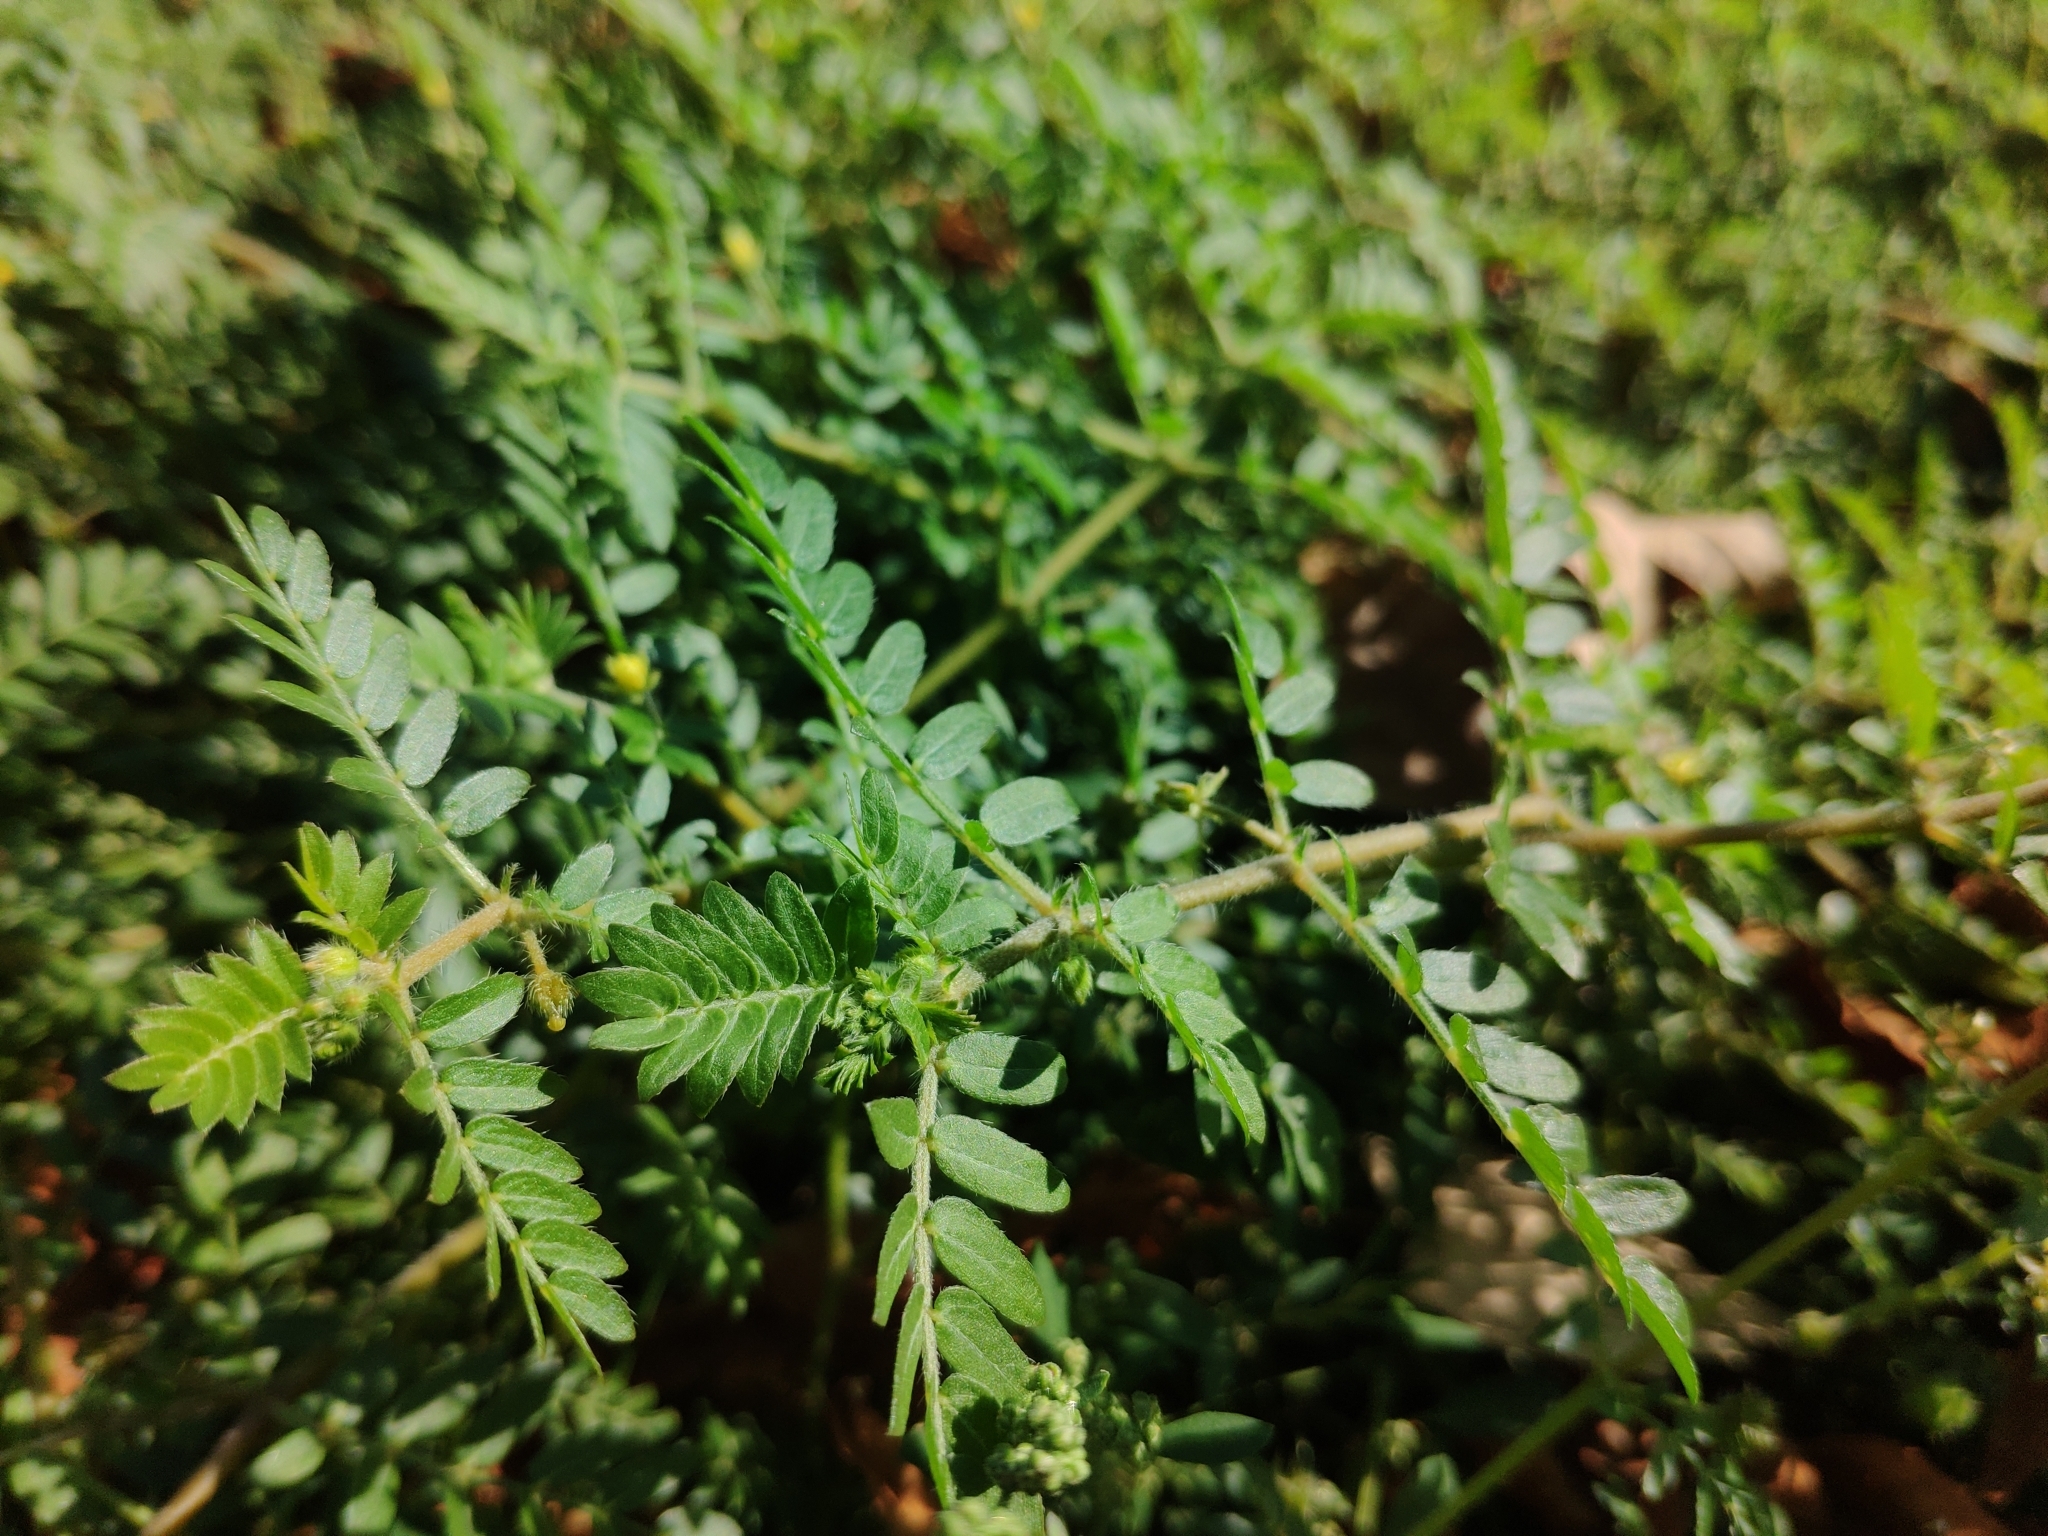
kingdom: Plantae
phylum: Tracheophyta
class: Magnoliopsida
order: Zygophyllales
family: Zygophyllaceae
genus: Tribulus
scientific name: Tribulus terrestris
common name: Puncturevine
